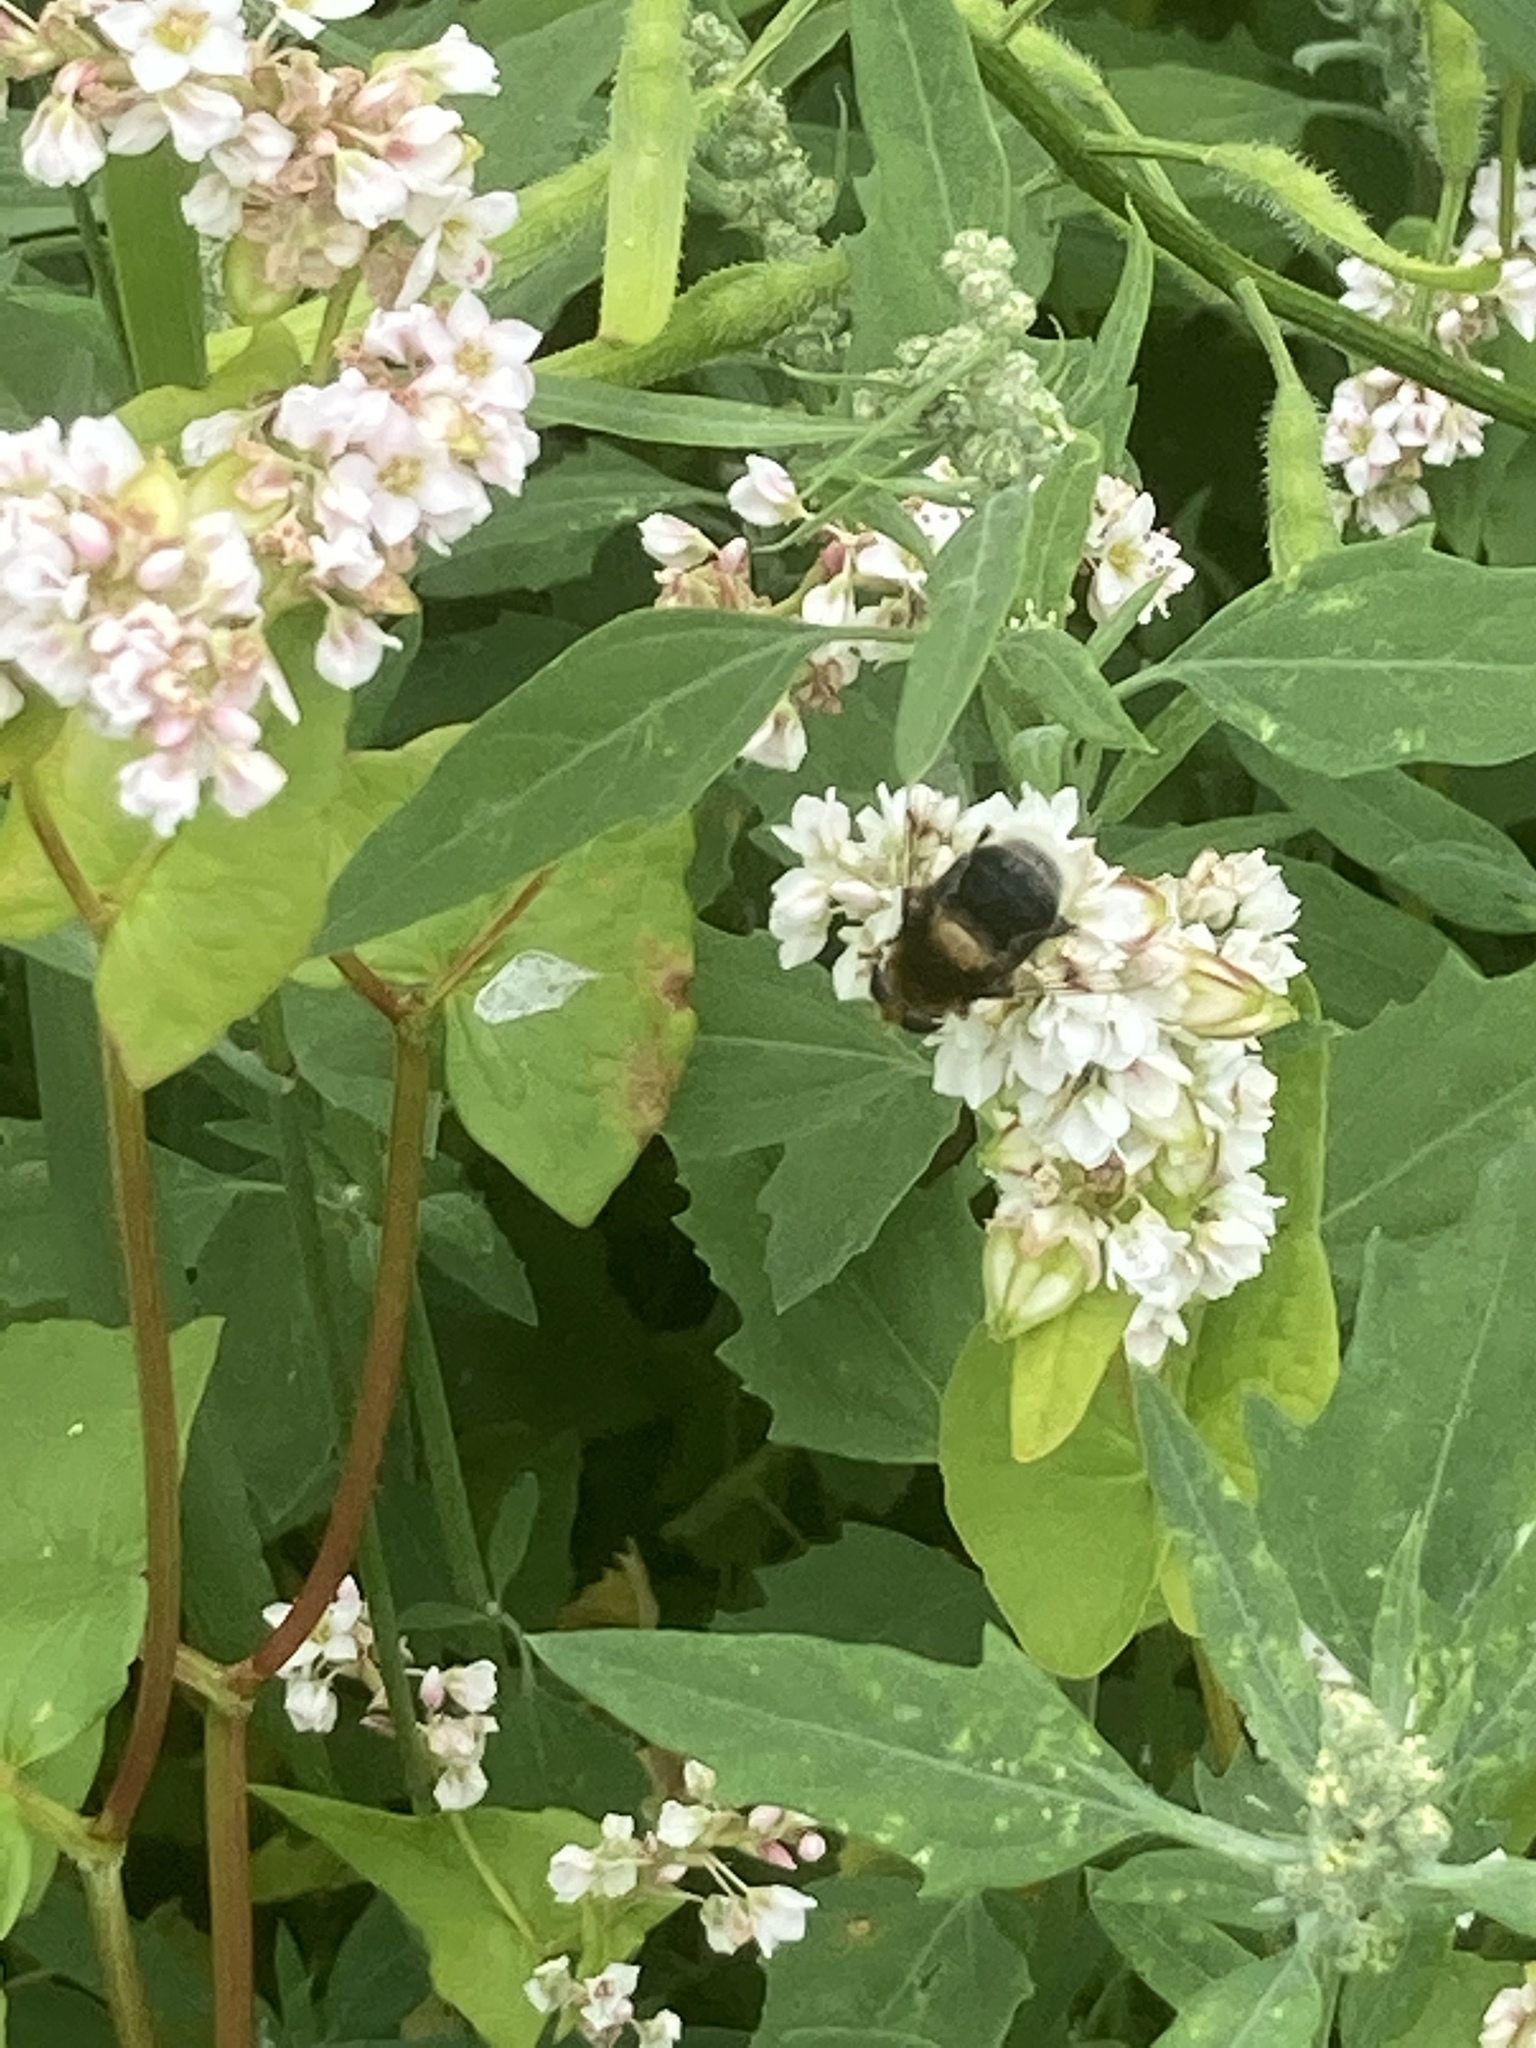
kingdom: Animalia
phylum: Arthropoda
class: Insecta
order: Diptera
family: Syrphidae
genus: Eristalis
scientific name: Eristalis intricaria
